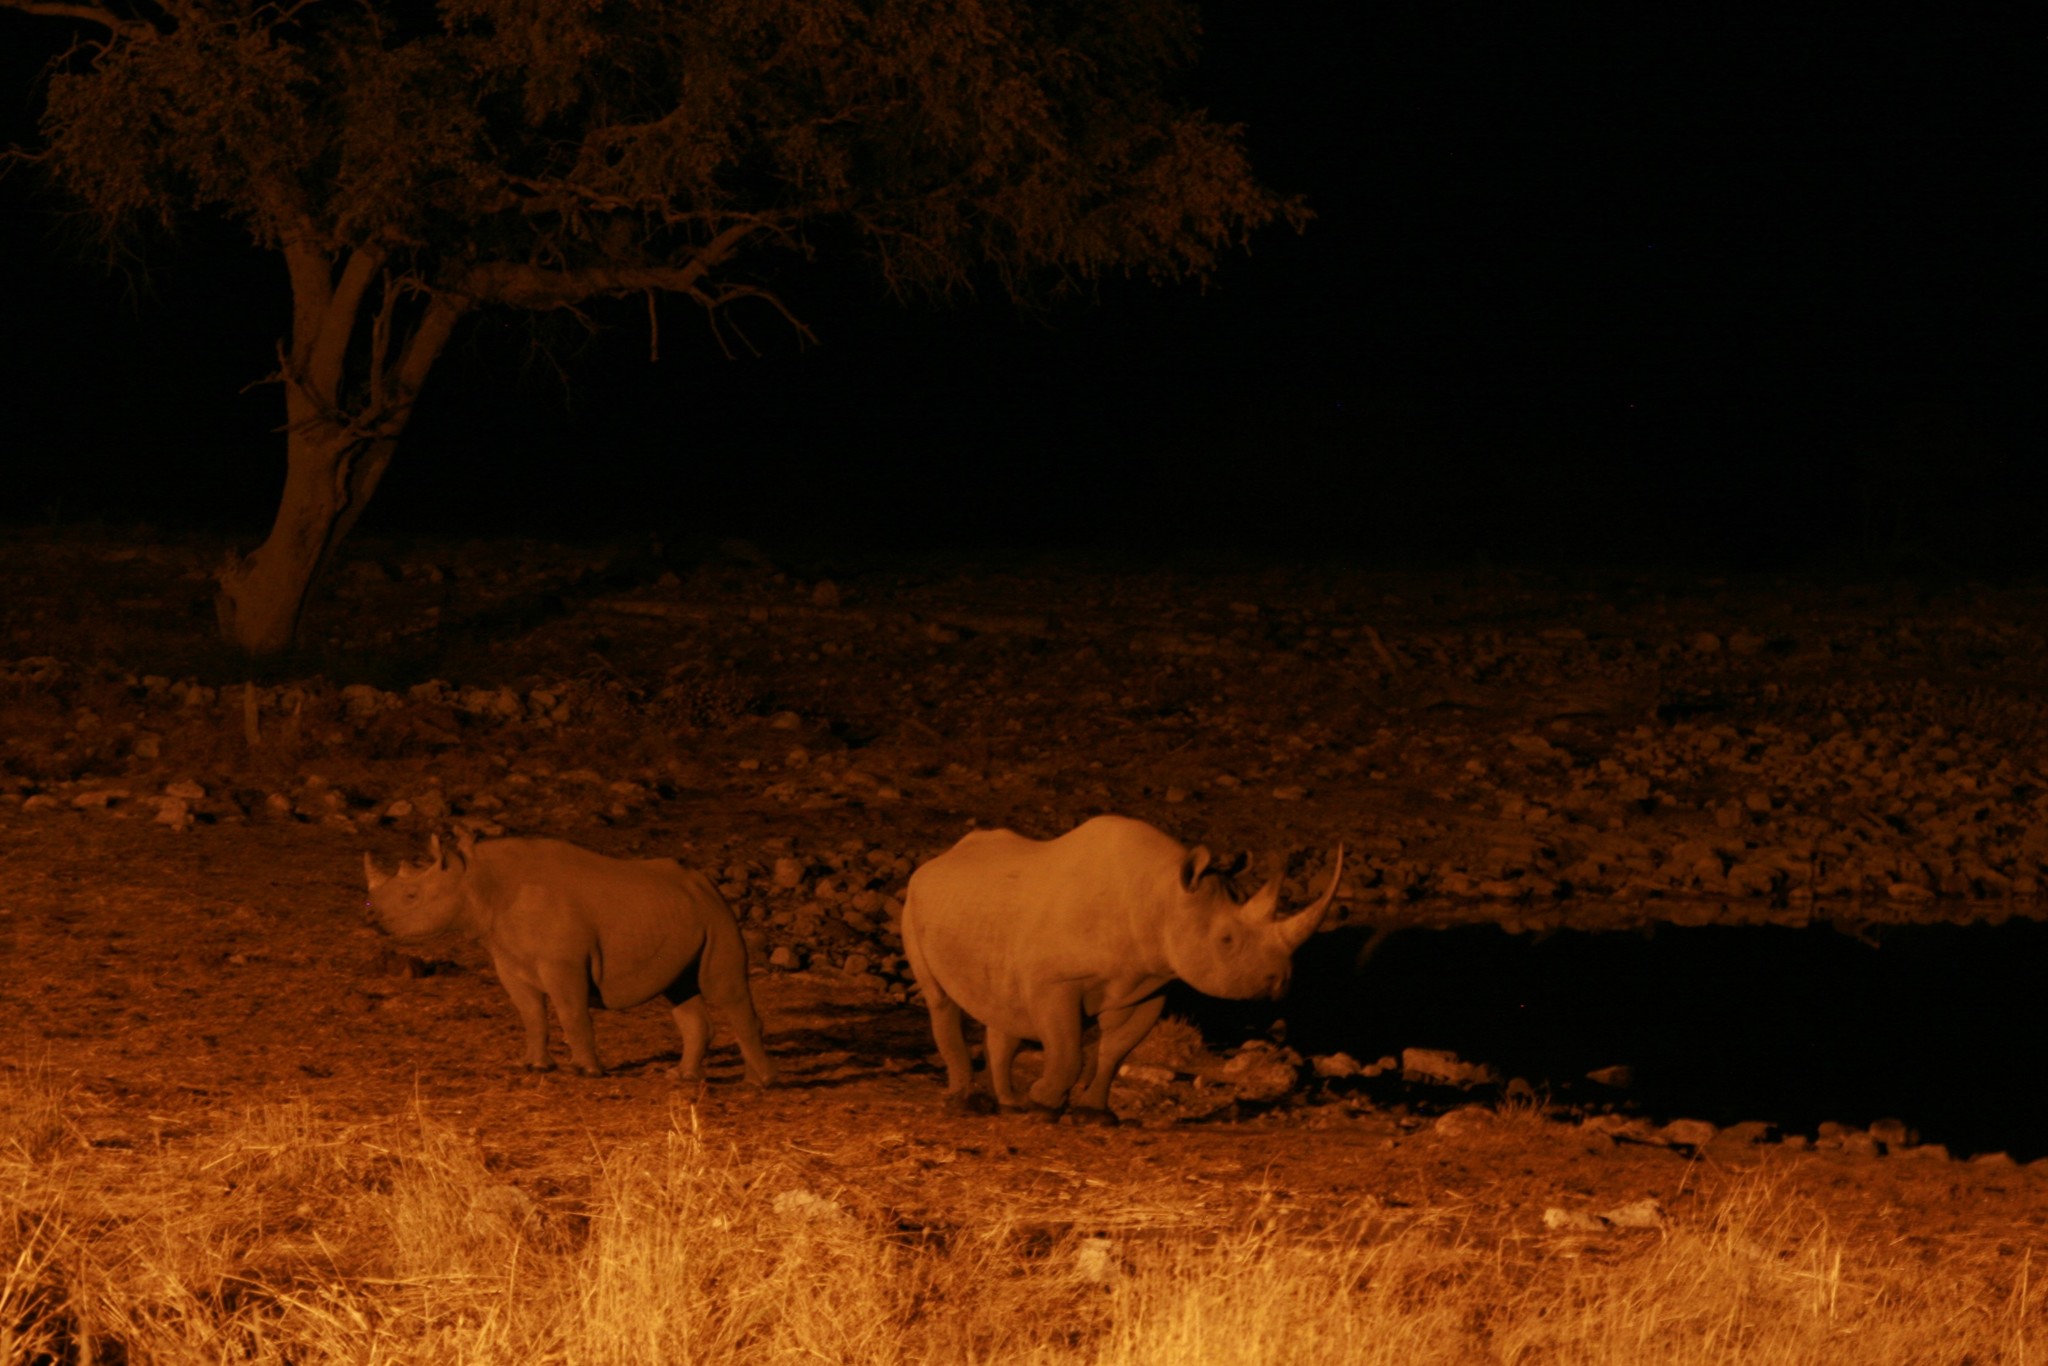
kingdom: Animalia
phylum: Chordata
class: Mammalia
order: Perissodactyla
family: Rhinocerotidae
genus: Diceros
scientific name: Diceros bicornis
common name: Black rhinoceros
